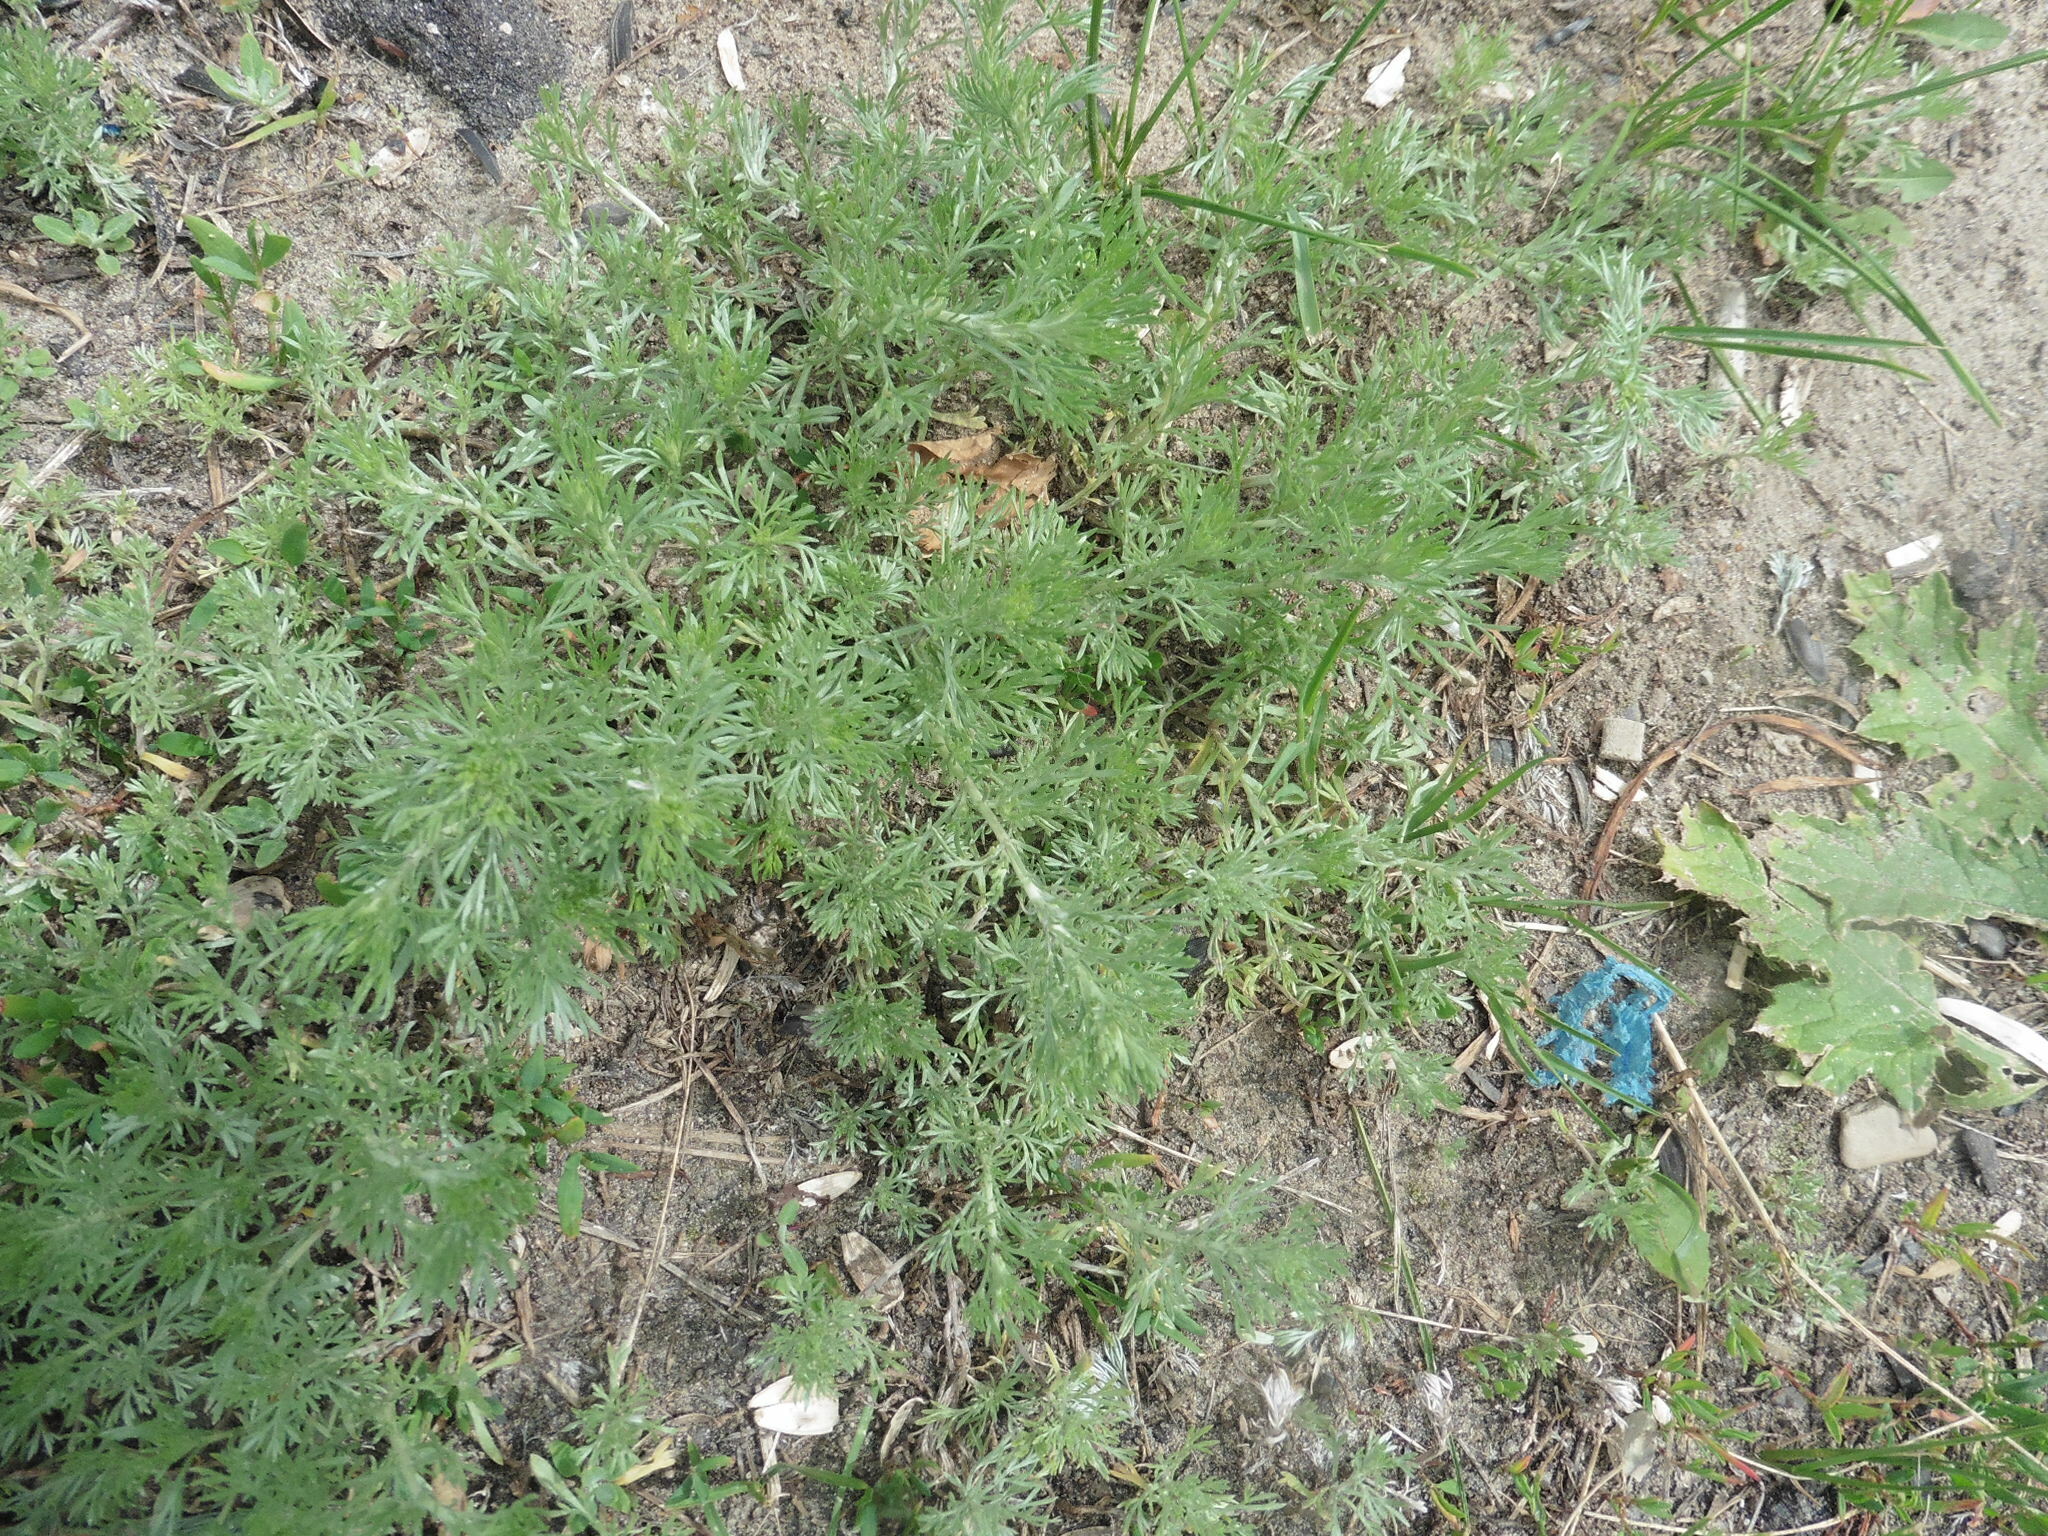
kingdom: Plantae
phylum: Tracheophyta
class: Magnoliopsida
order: Asterales
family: Asteraceae
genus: Artemisia
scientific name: Artemisia austriaca
